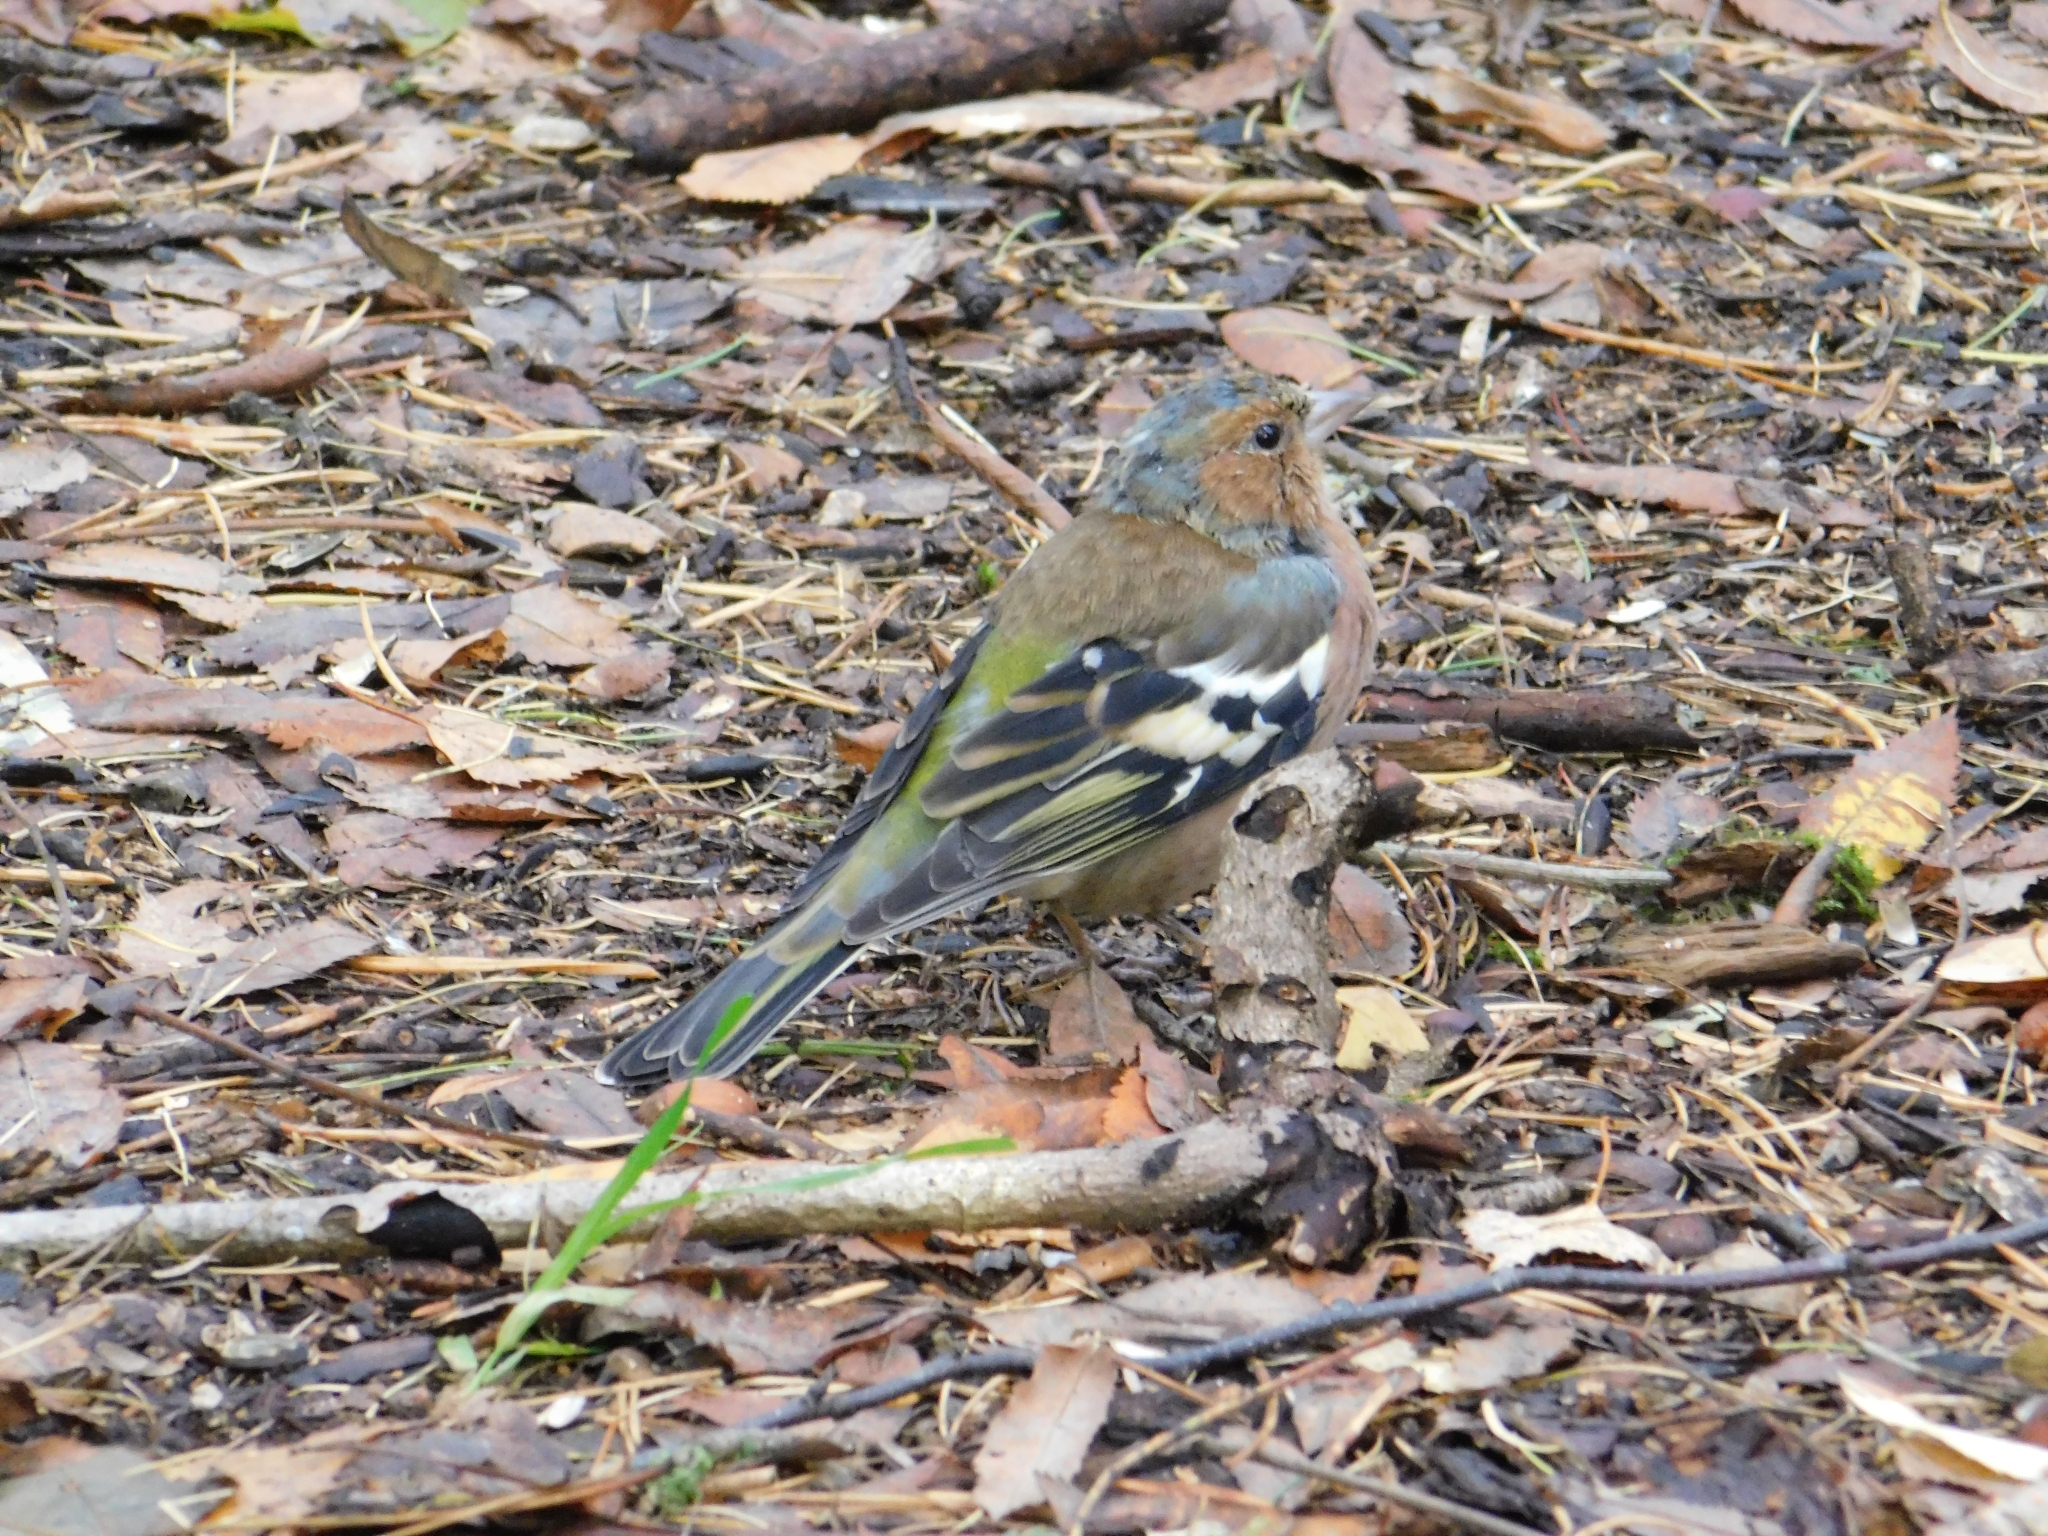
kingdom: Animalia
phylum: Chordata
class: Aves
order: Passeriformes
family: Fringillidae
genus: Fringilla
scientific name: Fringilla coelebs
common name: Common chaffinch
